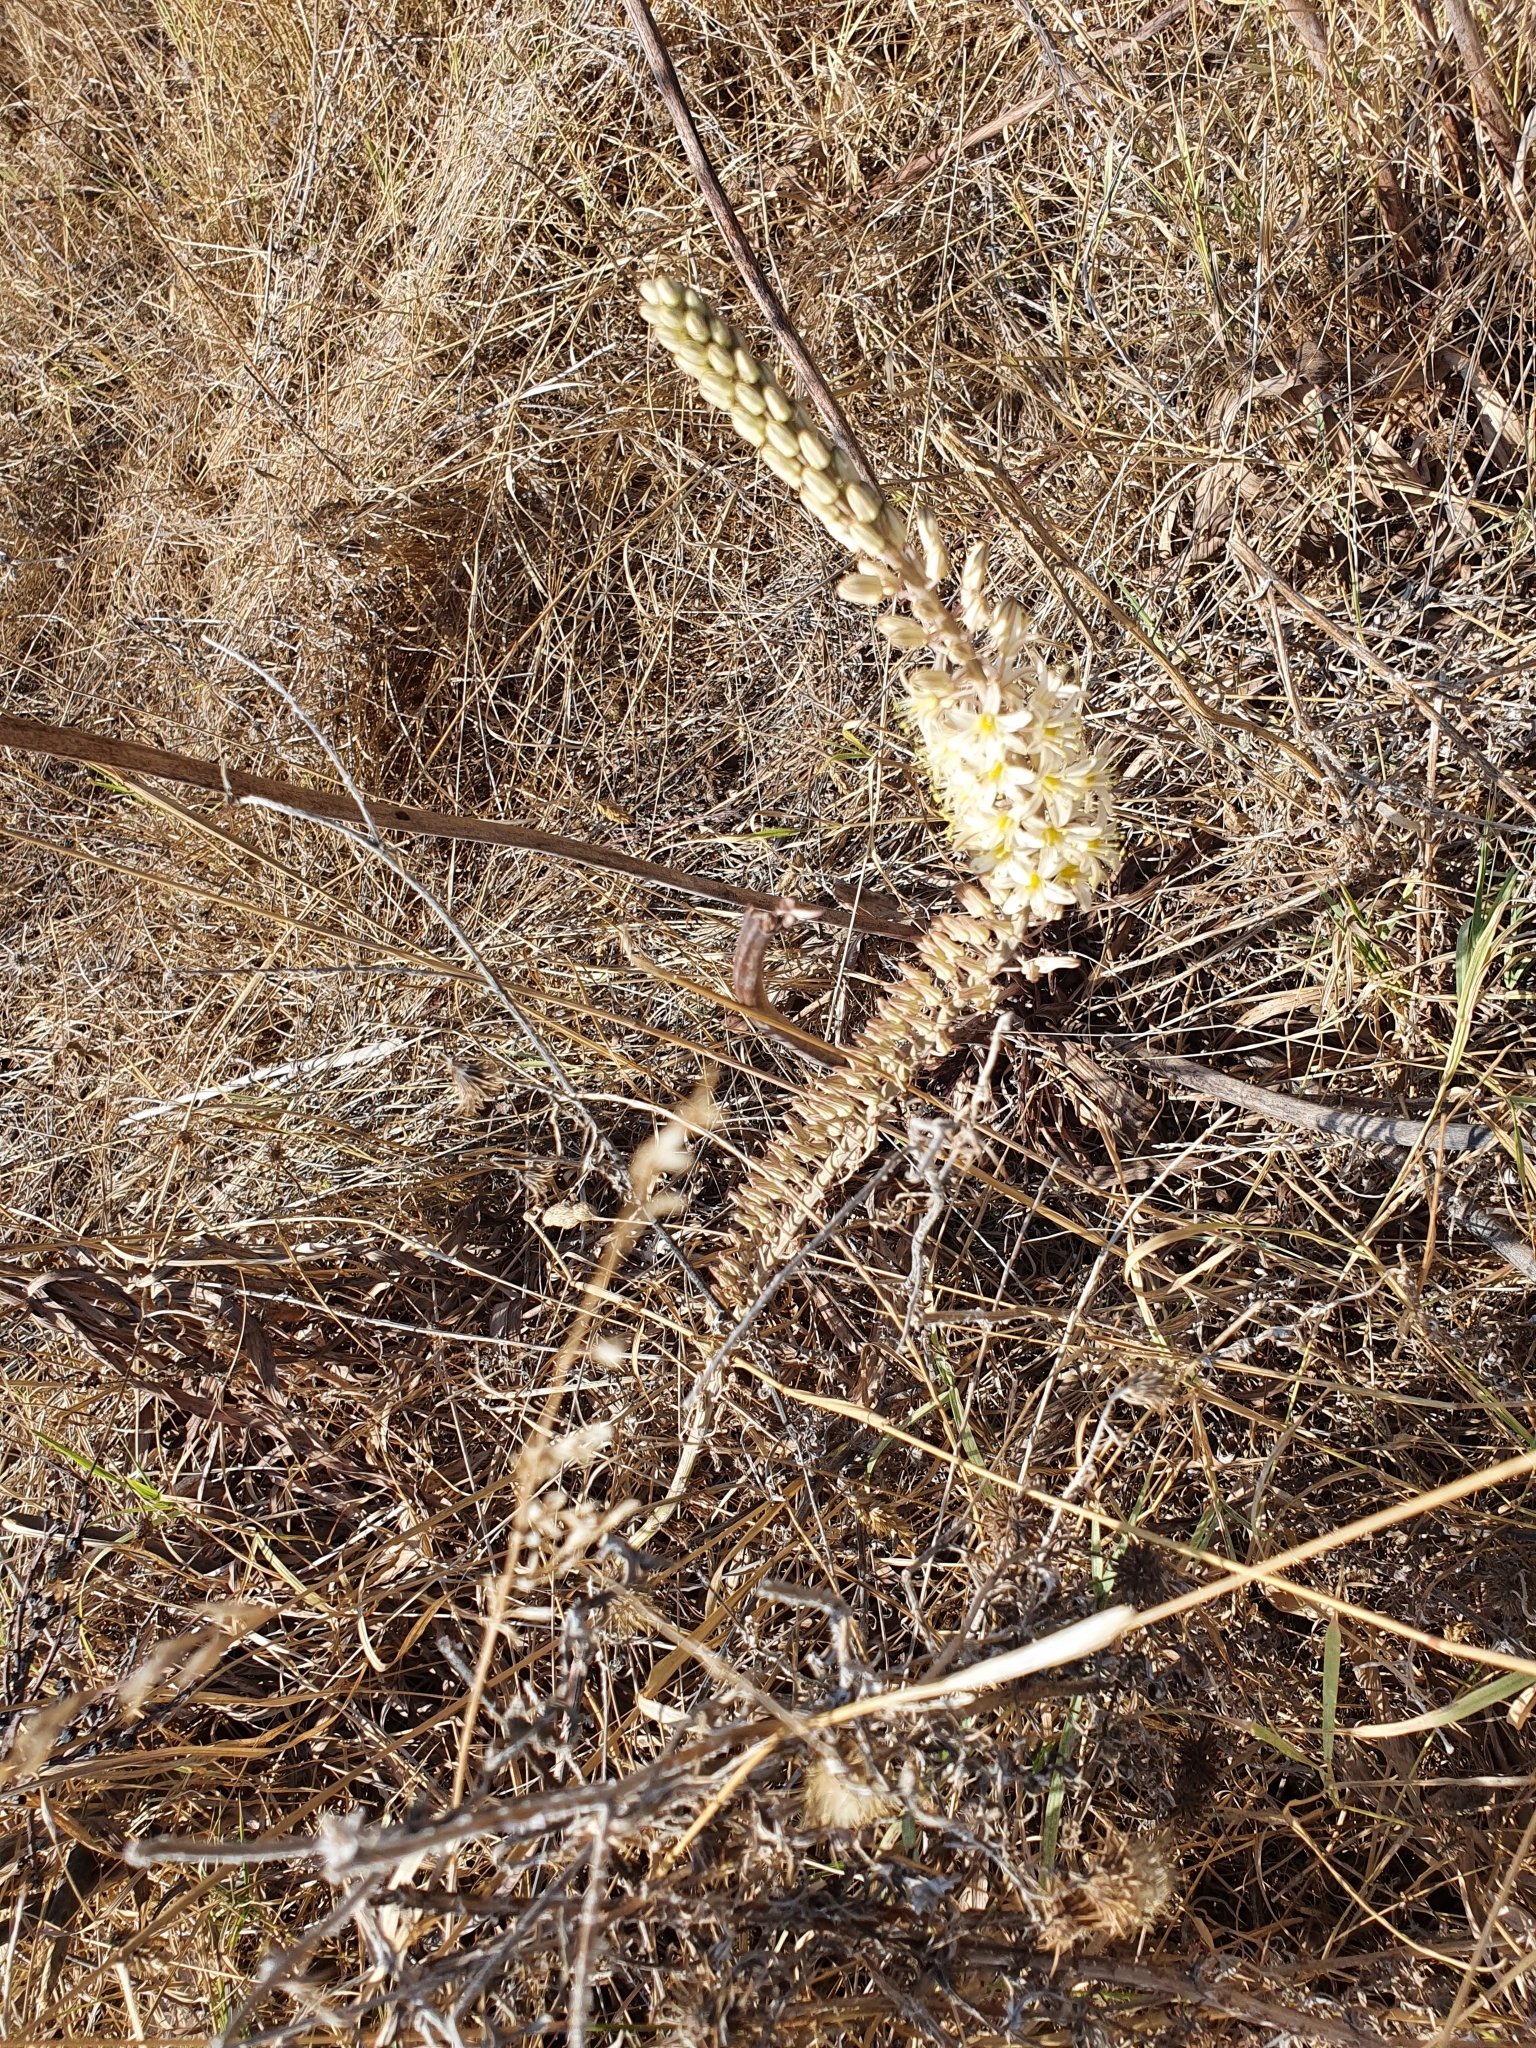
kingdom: Plantae
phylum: Tracheophyta
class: Liliopsida
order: Asparagales
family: Asparagaceae
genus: Drimia
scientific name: Drimia anthericoides
